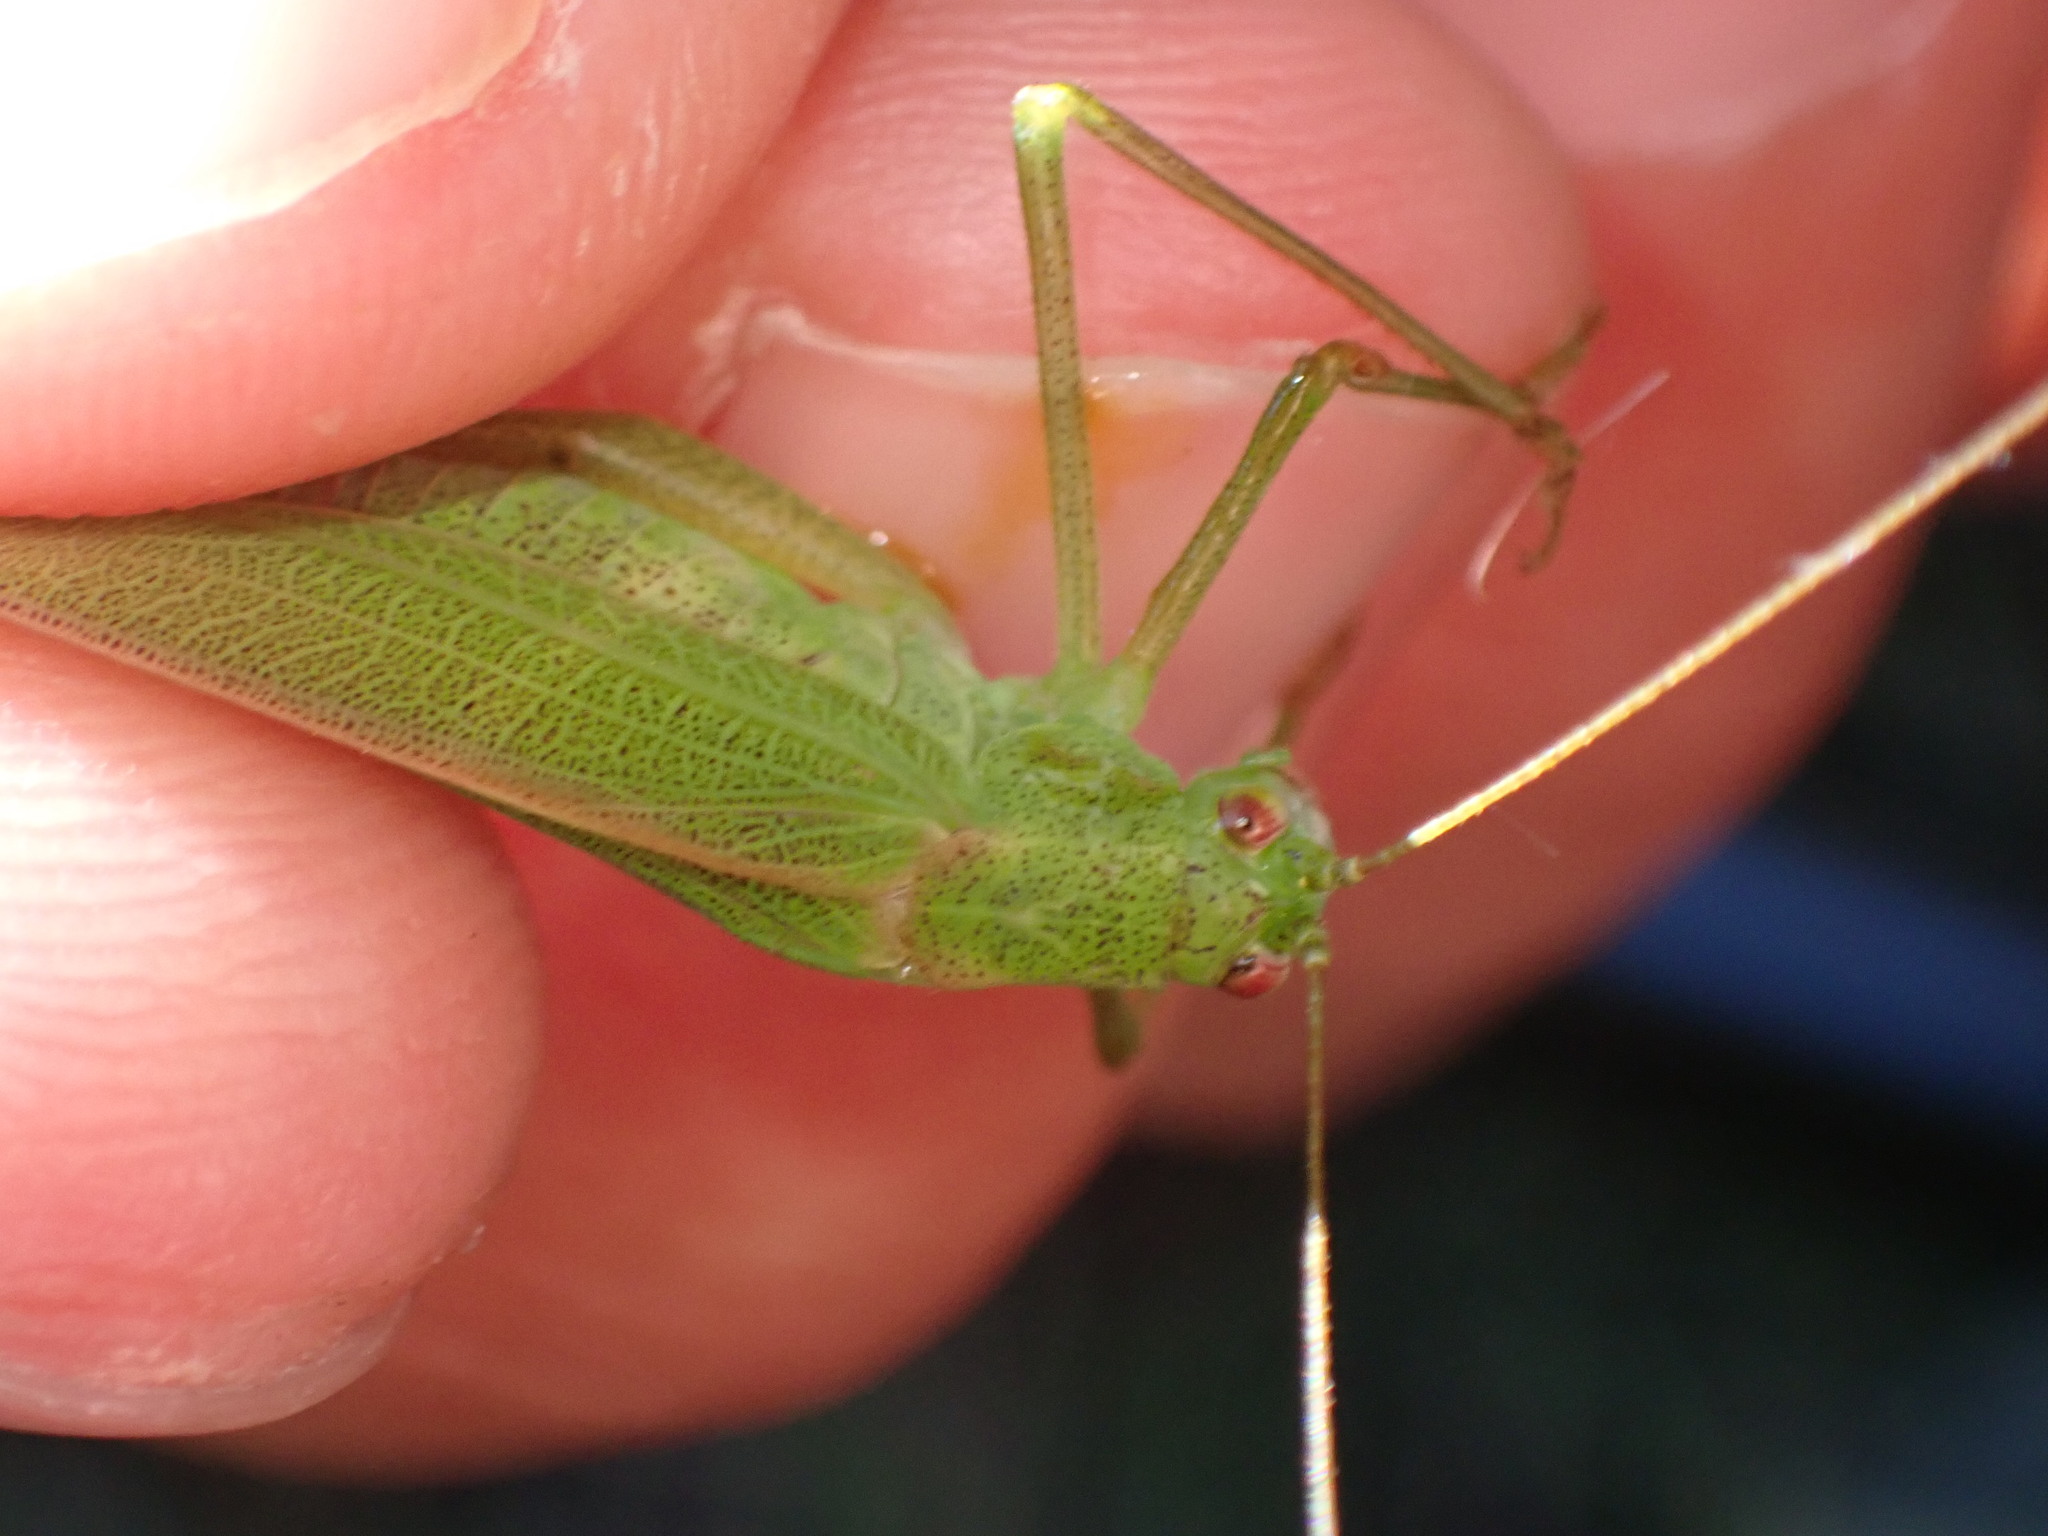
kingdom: Animalia
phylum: Arthropoda
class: Insecta
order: Orthoptera
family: Tettigoniidae
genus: Phaneroptera
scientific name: Phaneroptera falcata
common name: Sickle-bearing bush-cricket
